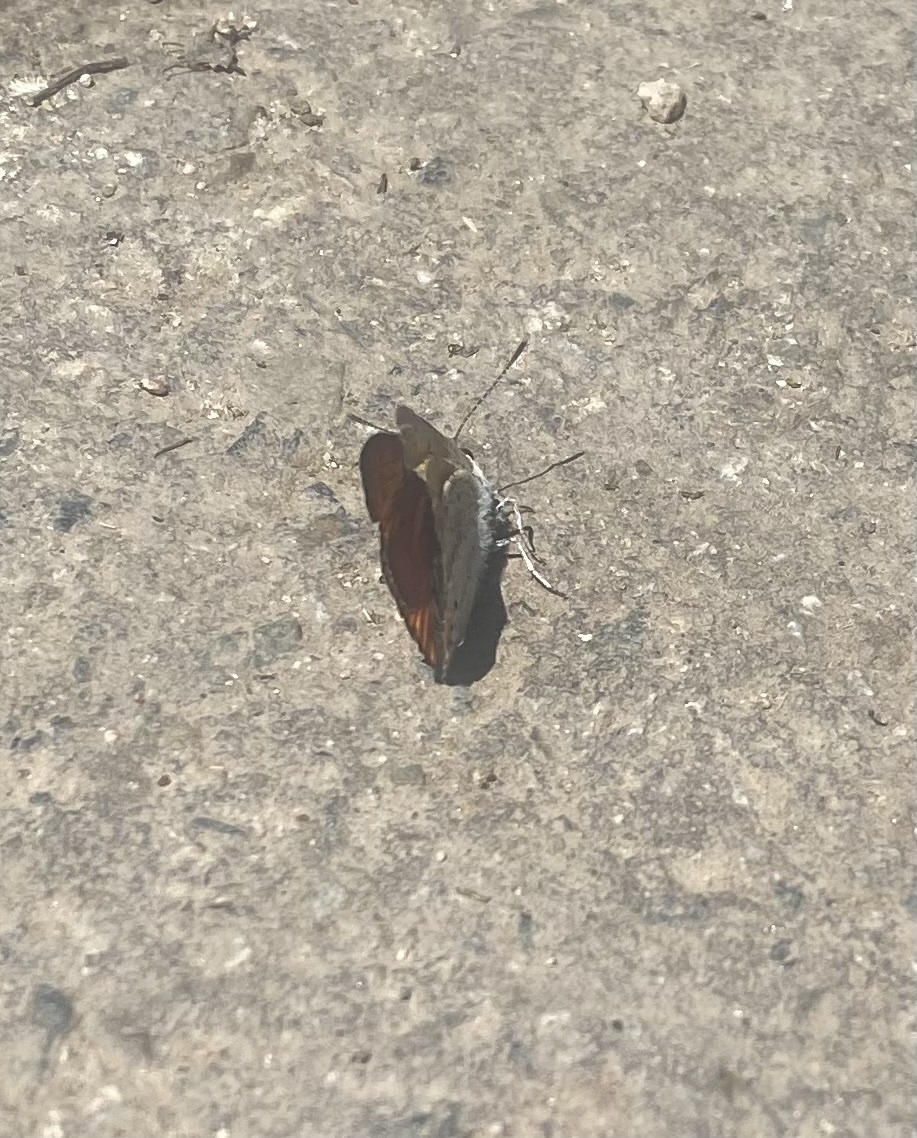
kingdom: Animalia
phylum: Arthropoda
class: Insecta
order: Lepidoptera
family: Lycaenidae
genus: Lycaena
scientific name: Lycaena dispar
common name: Large copper
